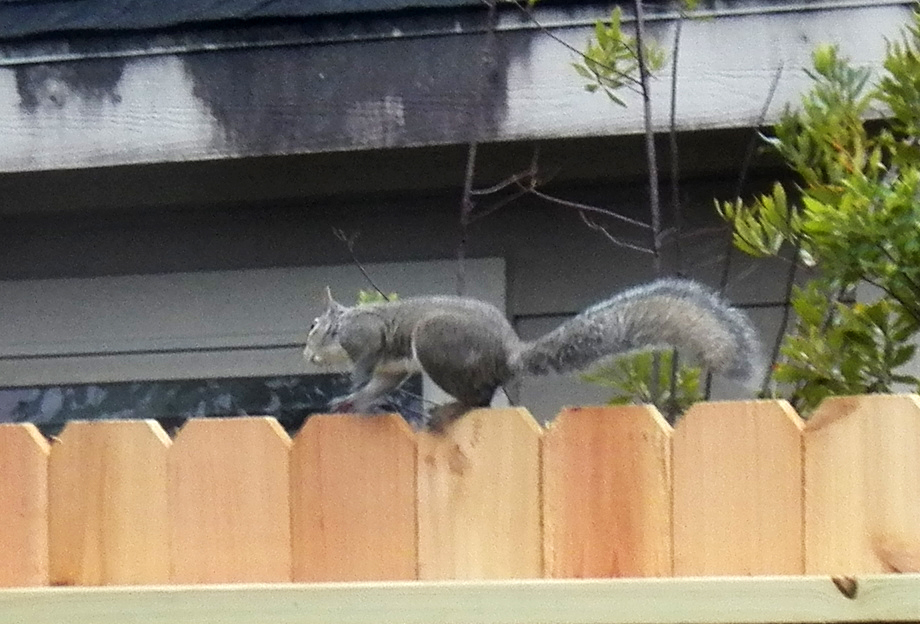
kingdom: Animalia
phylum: Chordata
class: Mammalia
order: Rodentia
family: Sciuridae
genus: Sciurus
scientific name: Sciurus carolinensis
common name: Eastern gray squirrel
